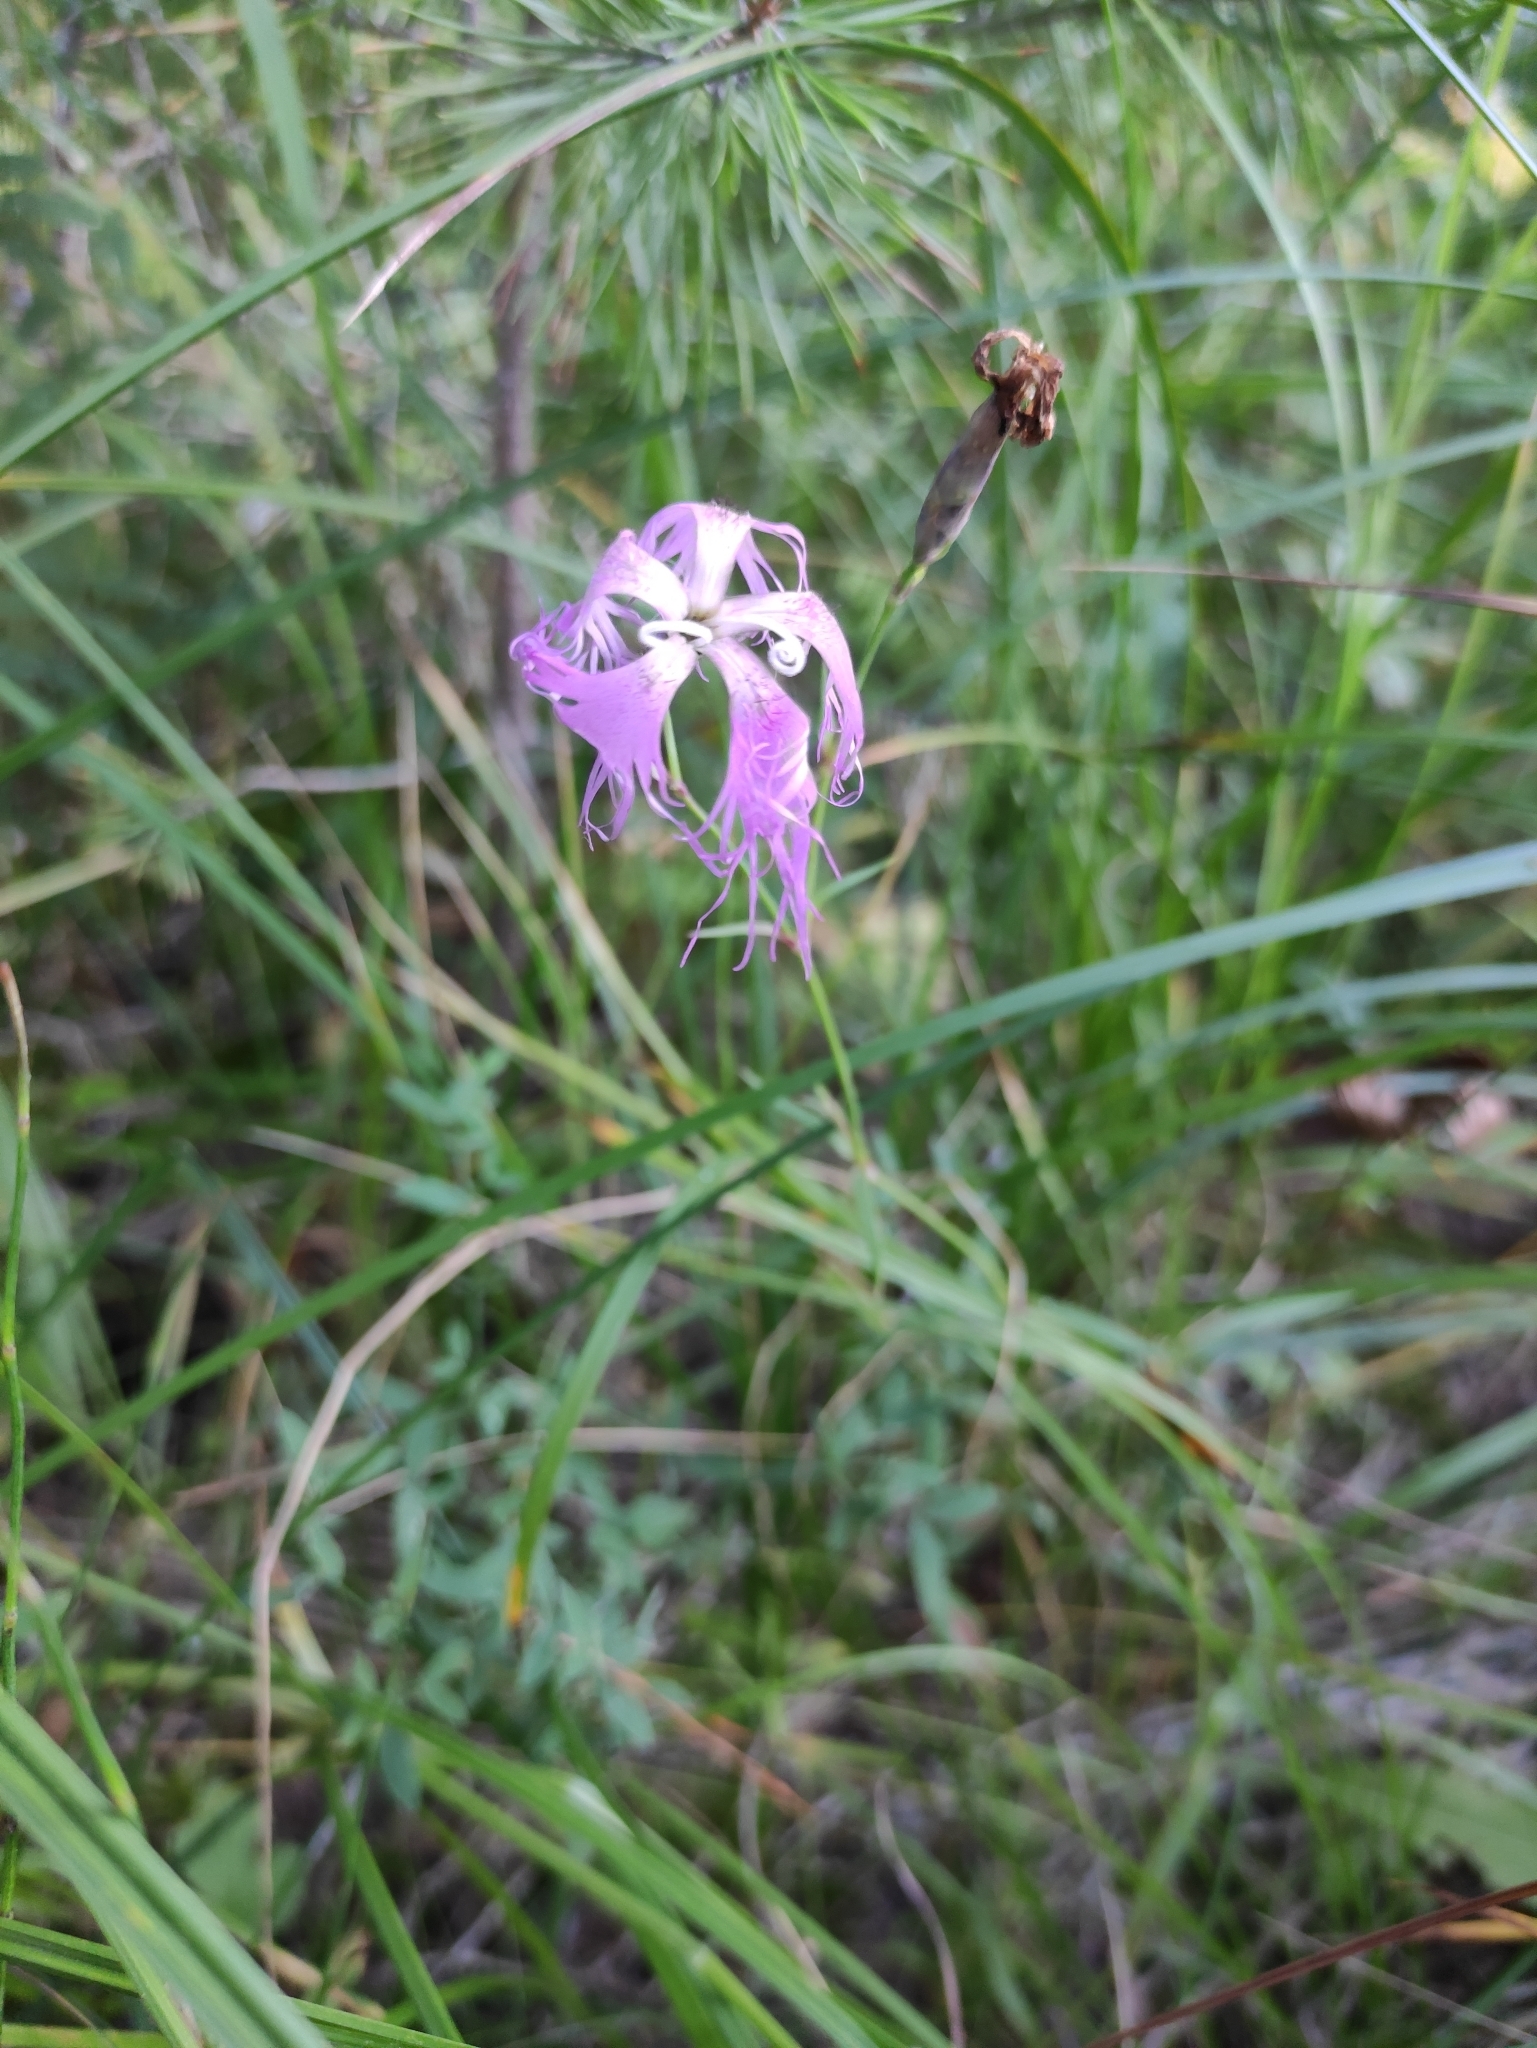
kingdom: Plantae
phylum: Tracheophyta
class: Magnoliopsida
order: Caryophyllales
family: Caryophyllaceae
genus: Dianthus
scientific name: Dianthus superbus
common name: Fringed pink
